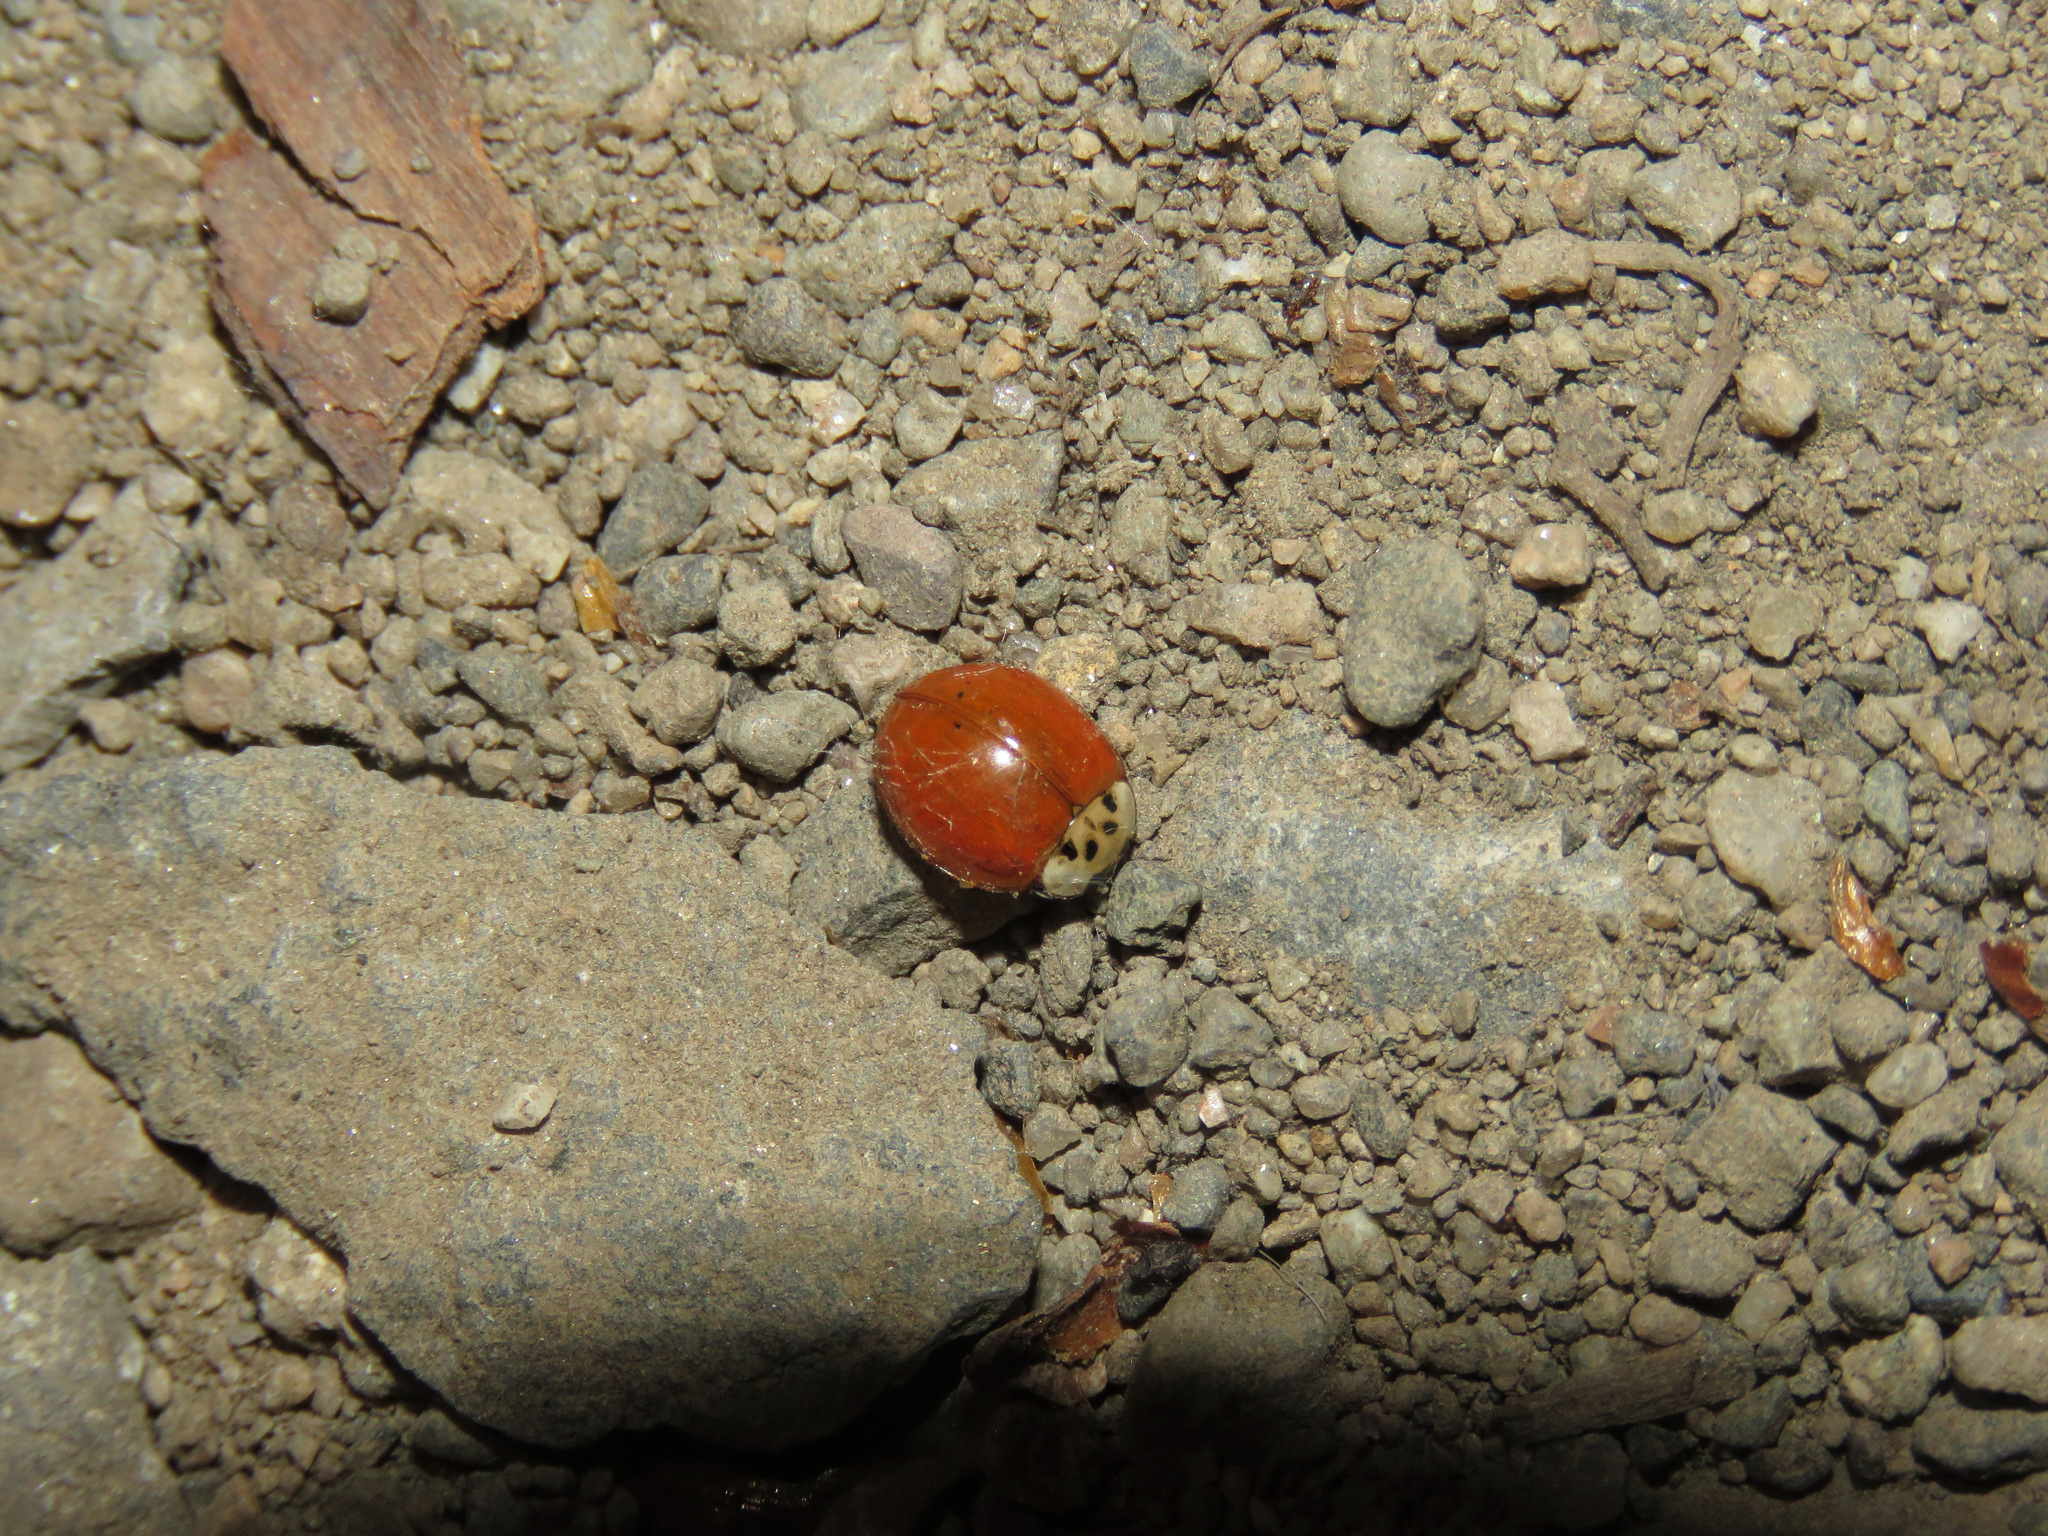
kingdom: Animalia
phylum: Arthropoda
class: Insecta
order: Coleoptera
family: Coccinellidae
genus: Harmonia
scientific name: Harmonia axyridis
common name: Harlequin ladybird
